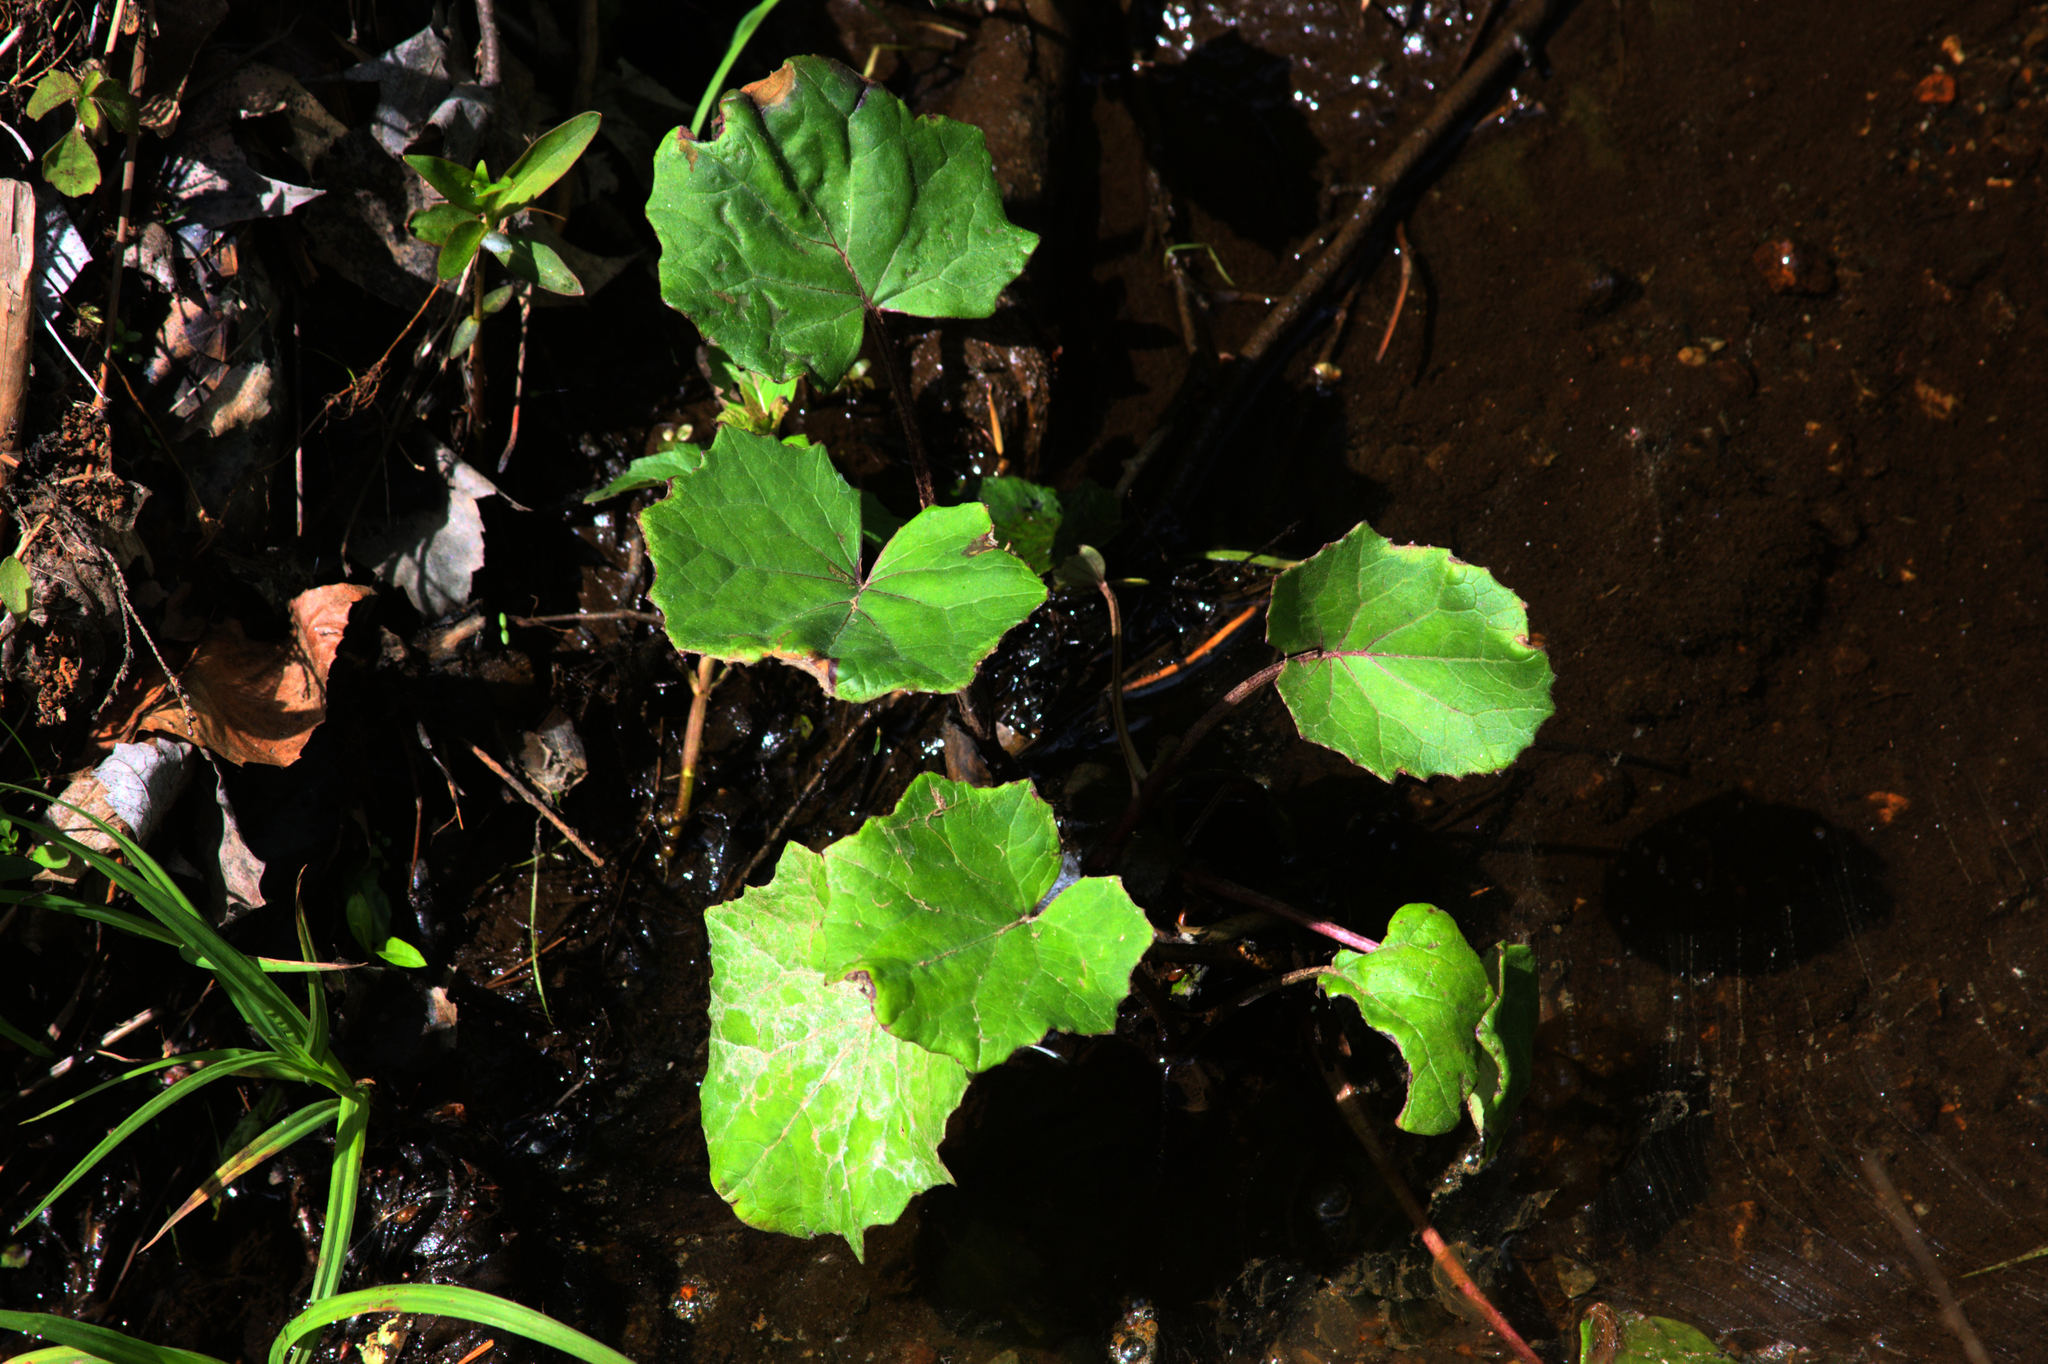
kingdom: Plantae
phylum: Tracheophyta
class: Magnoliopsida
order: Asterales
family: Asteraceae
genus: Tussilago
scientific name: Tussilago farfara
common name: Coltsfoot
